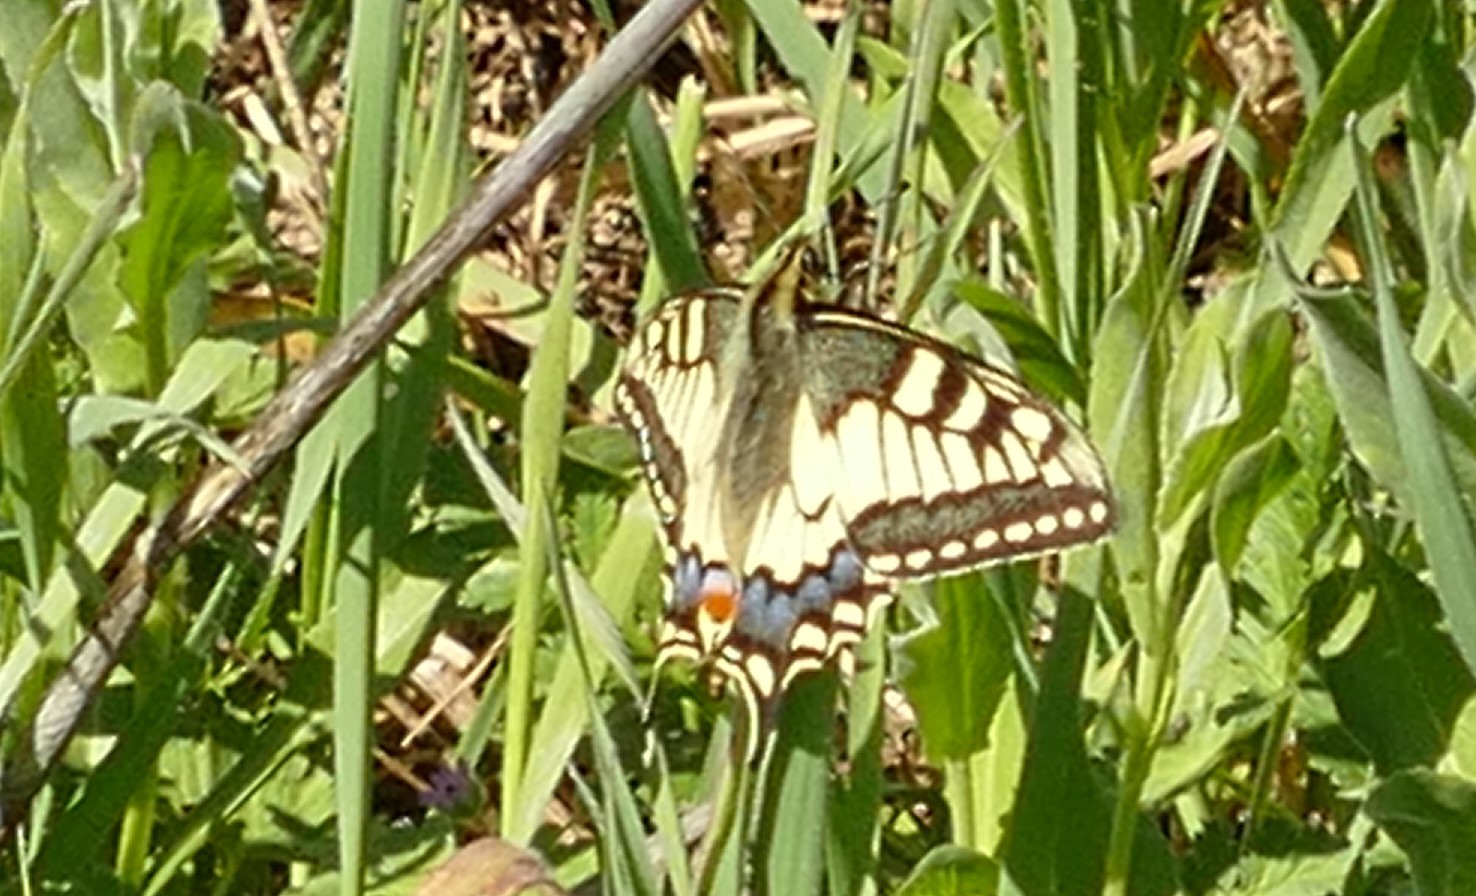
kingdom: Animalia
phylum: Arthropoda
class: Insecta
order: Lepidoptera
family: Papilionidae
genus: Papilio
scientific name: Papilio machaon
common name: Swallowtail
